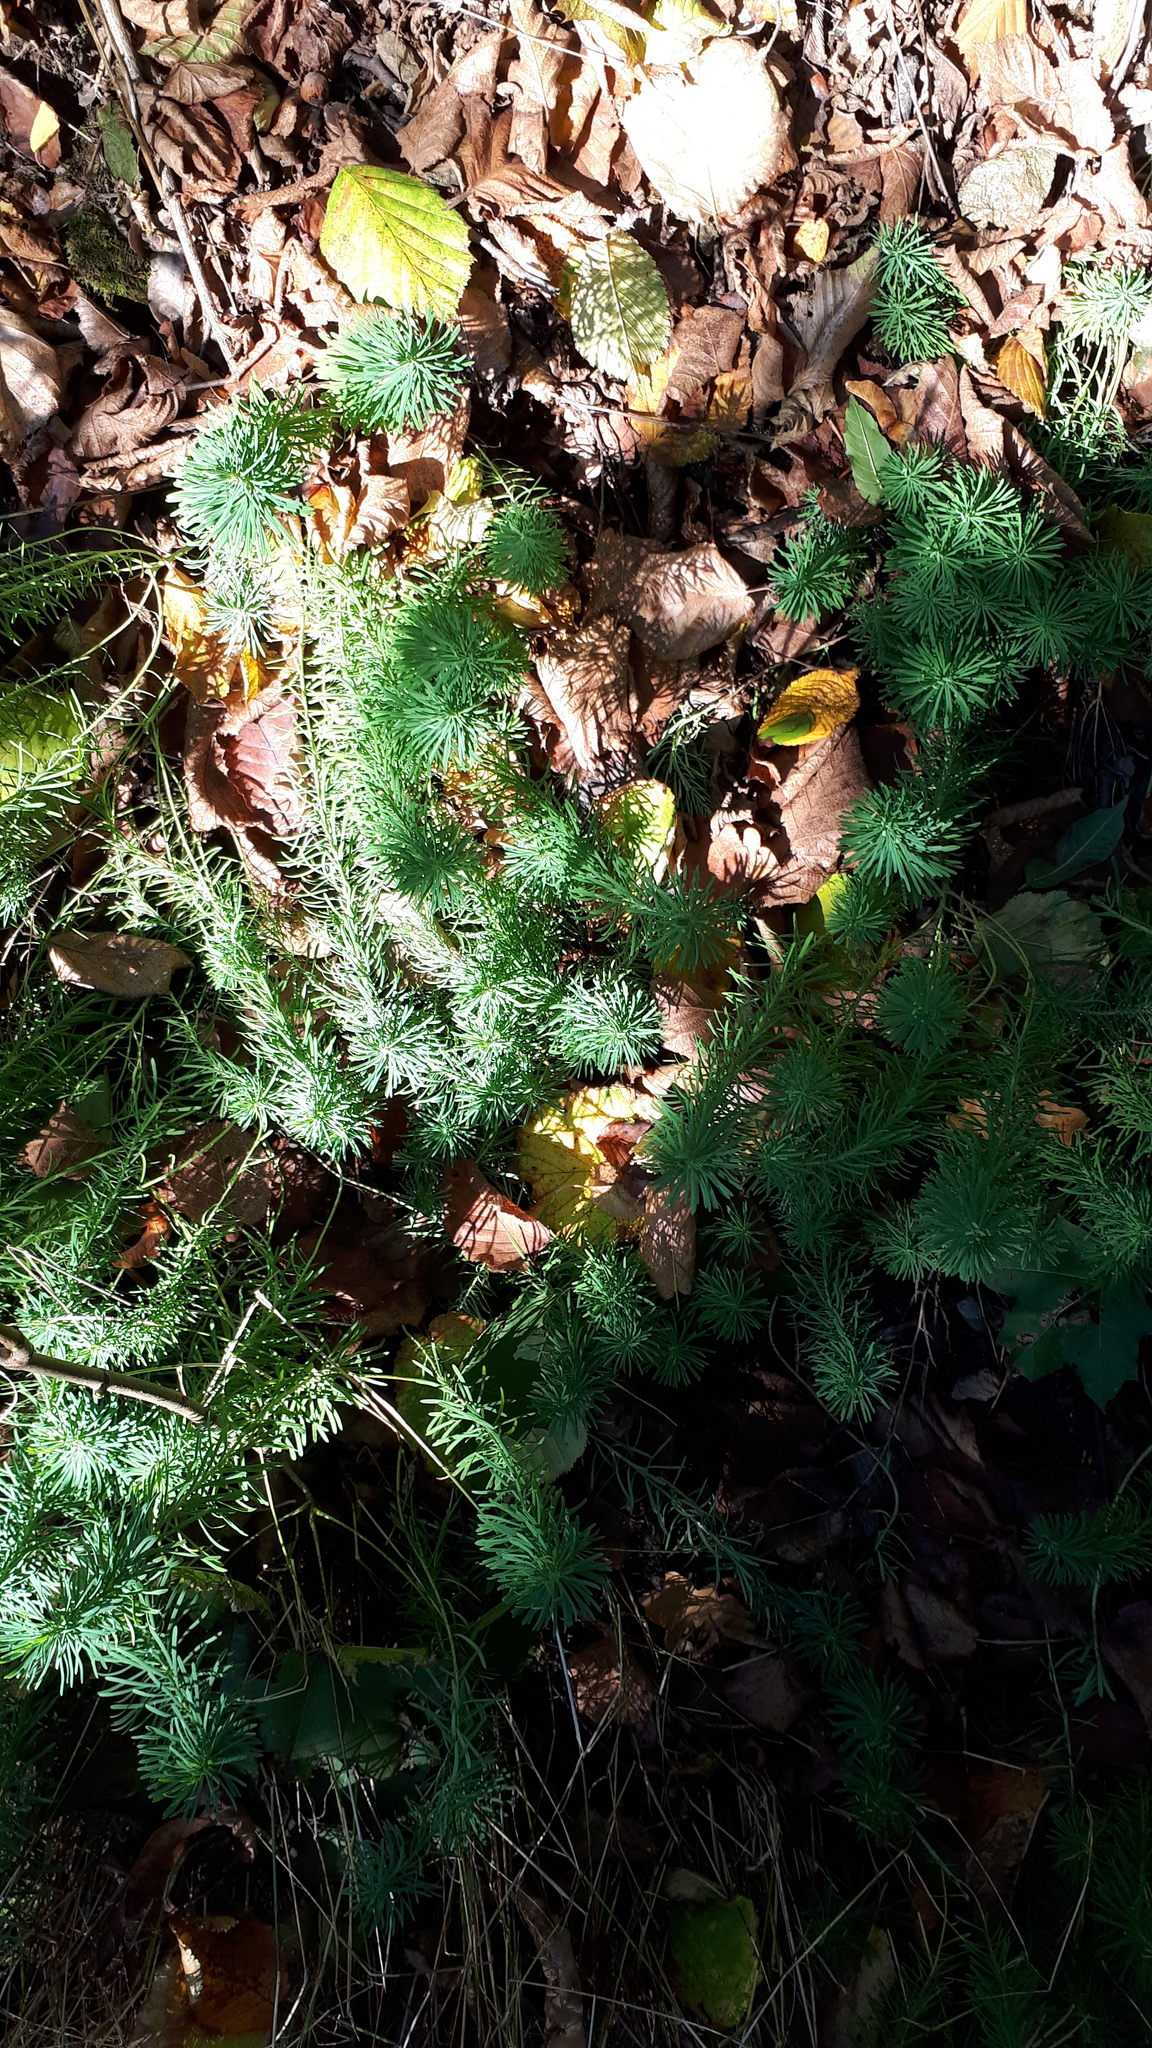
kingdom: Plantae
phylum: Tracheophyta
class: Magnoliopsida
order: Malpighiales
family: Euphorbiaceae
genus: Euphorbia
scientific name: Euphorbia cyparissias
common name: Cypress spurge
